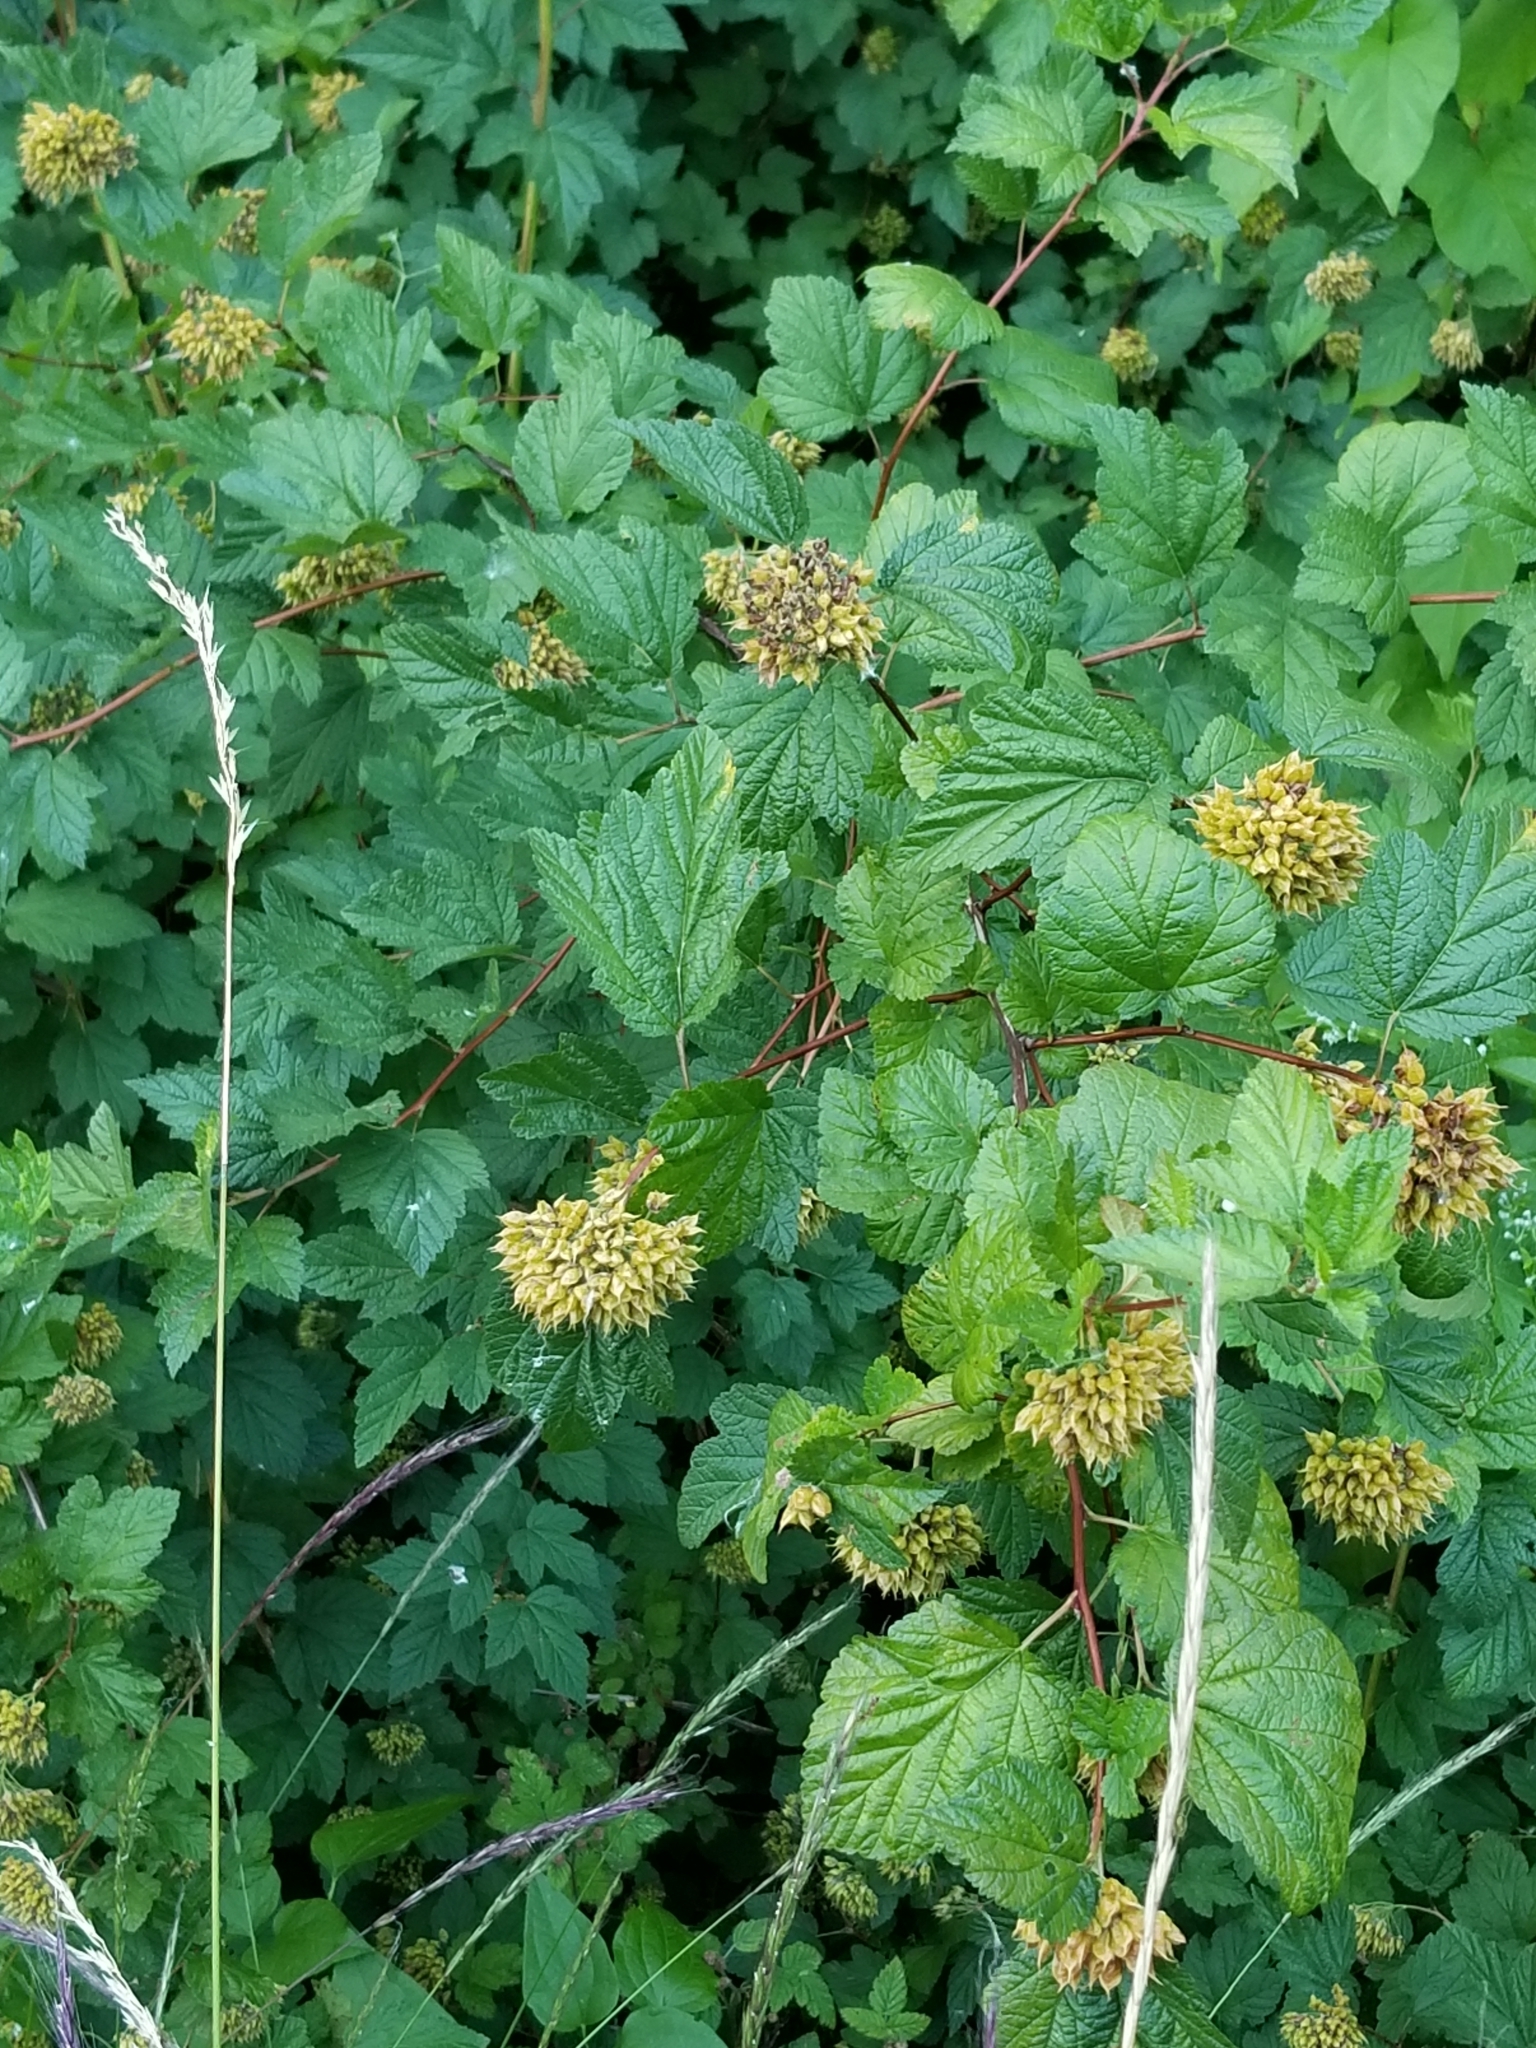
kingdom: Plantae
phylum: Tracheophyta
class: Magnoliopsida
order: Rosales
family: Rosaceae
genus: Physocarpus
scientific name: Physocarpus capitatus
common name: Pacific ninebark
